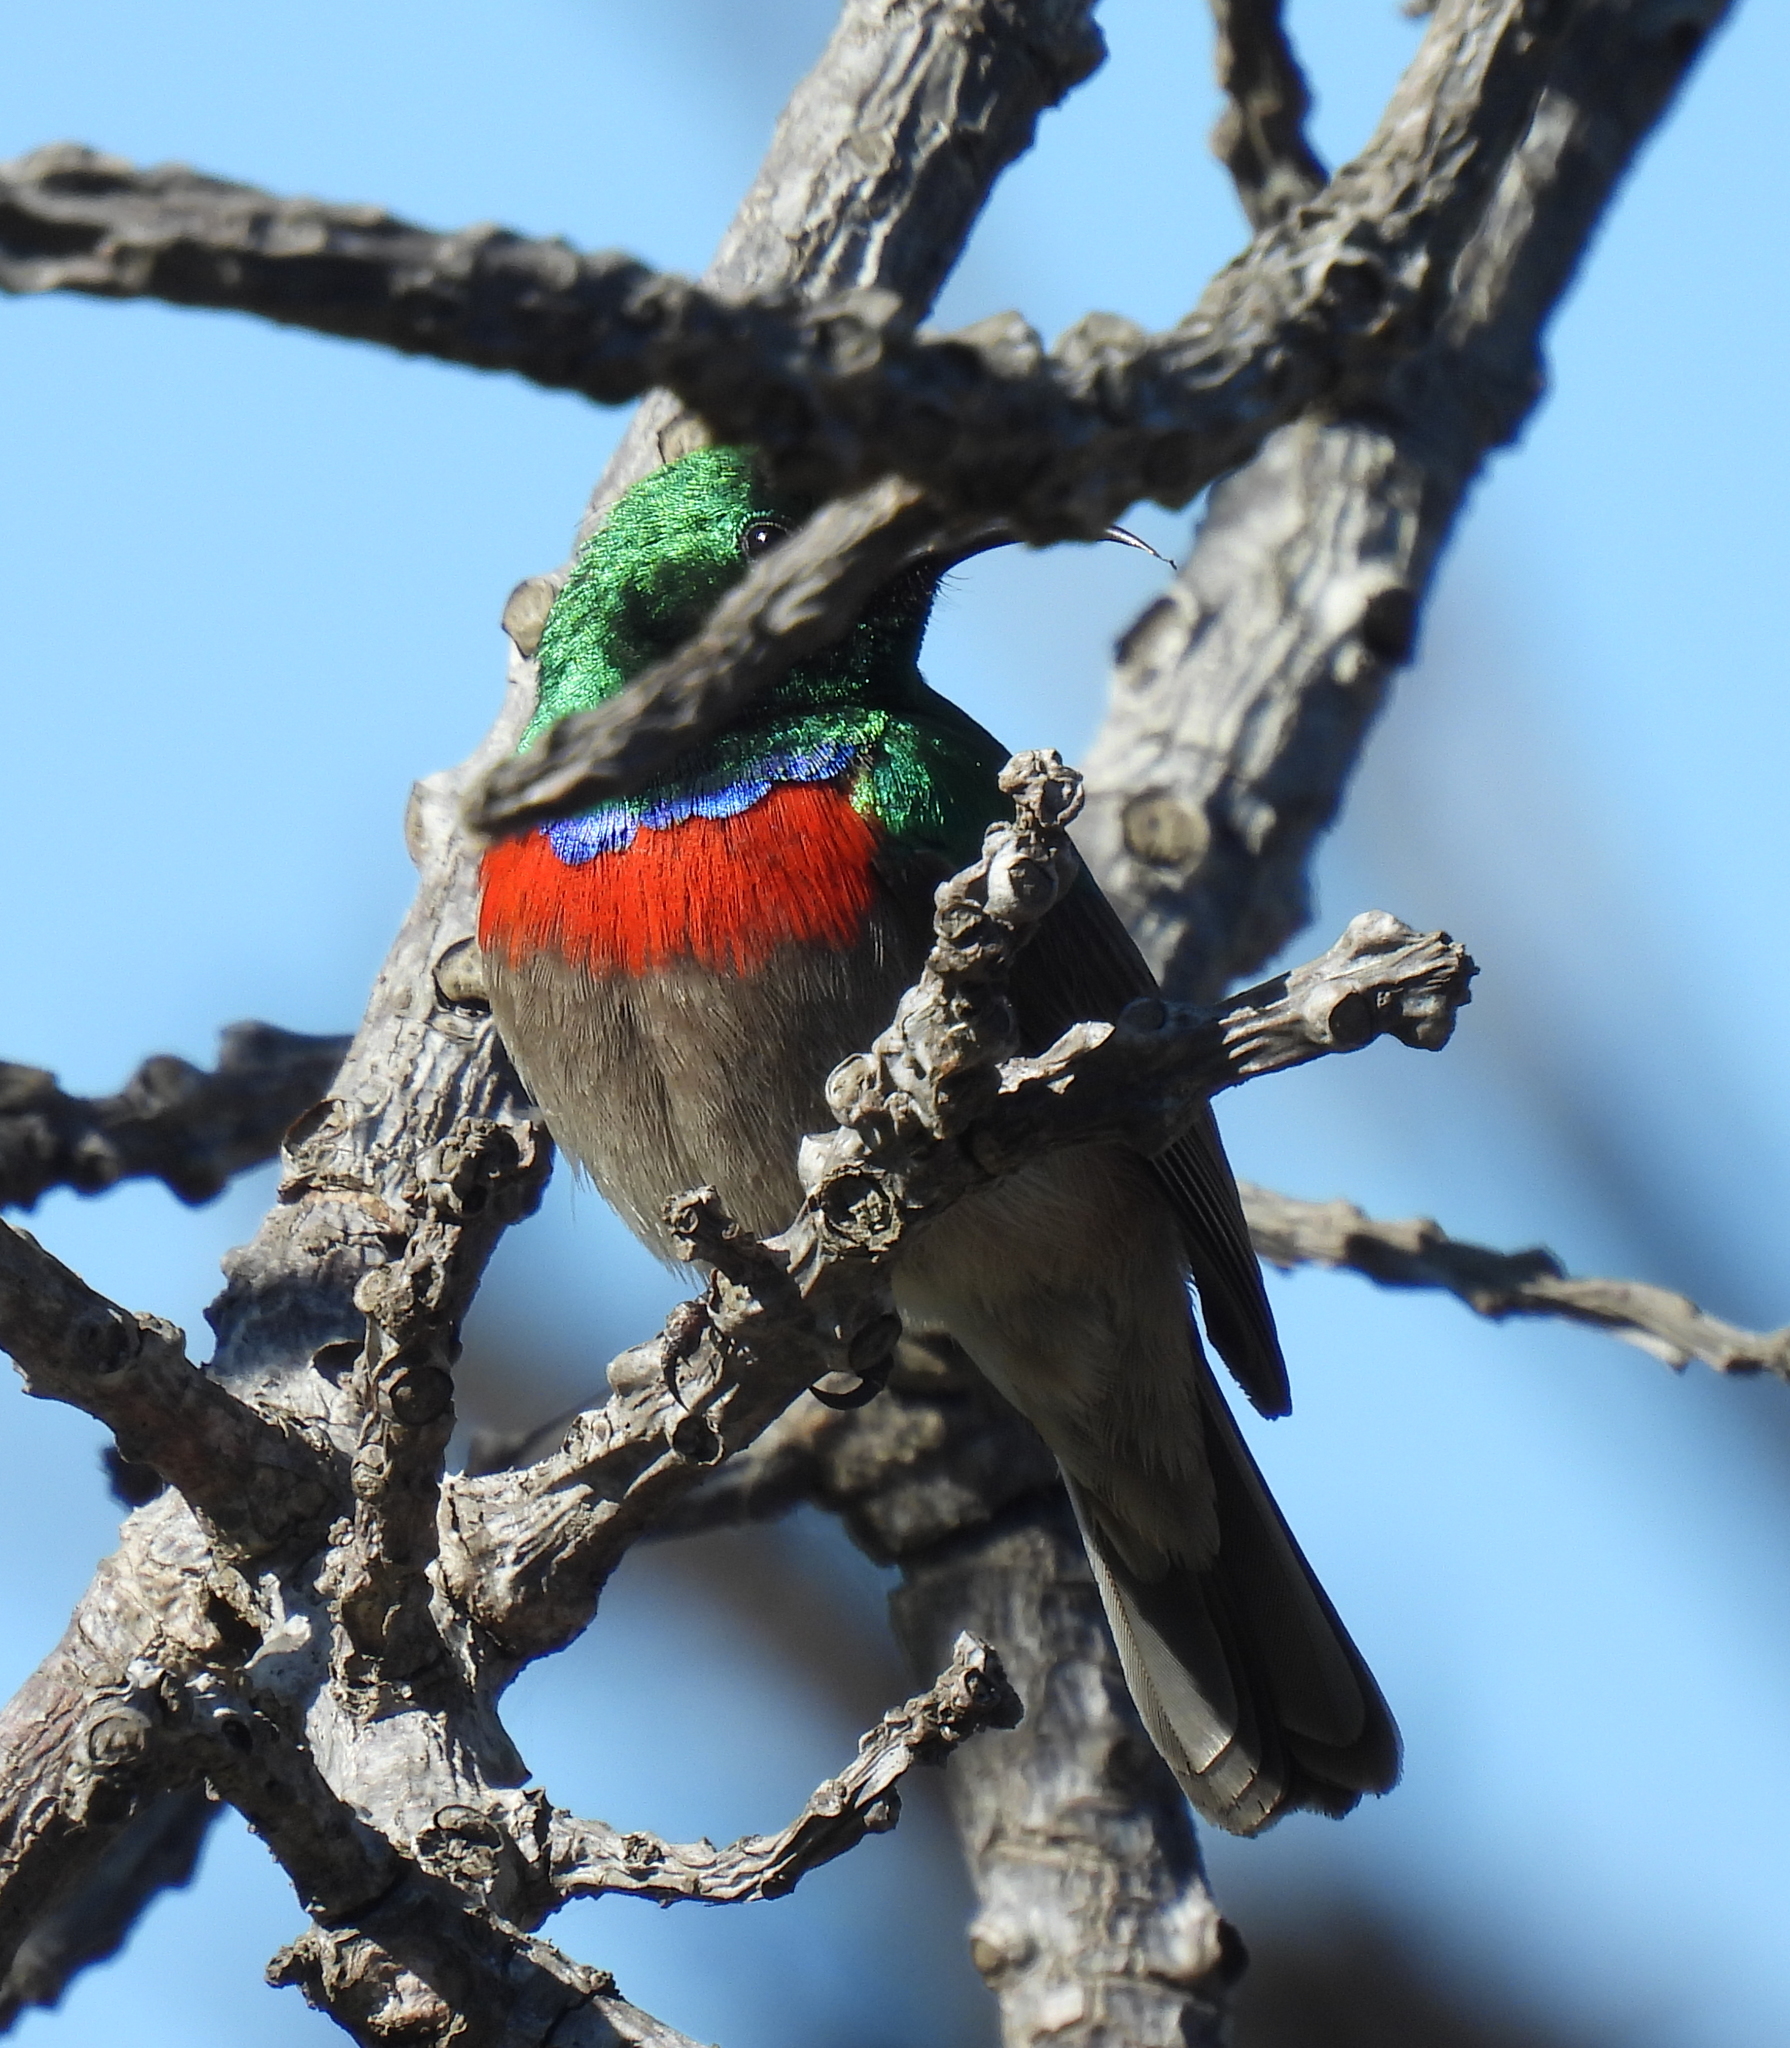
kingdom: Animalia
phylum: Chordata
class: Aves
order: Passeriformes
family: Nectariniidae
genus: Cinnyris
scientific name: Cinnyris chalybeus
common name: Southern double-collared sunbird
